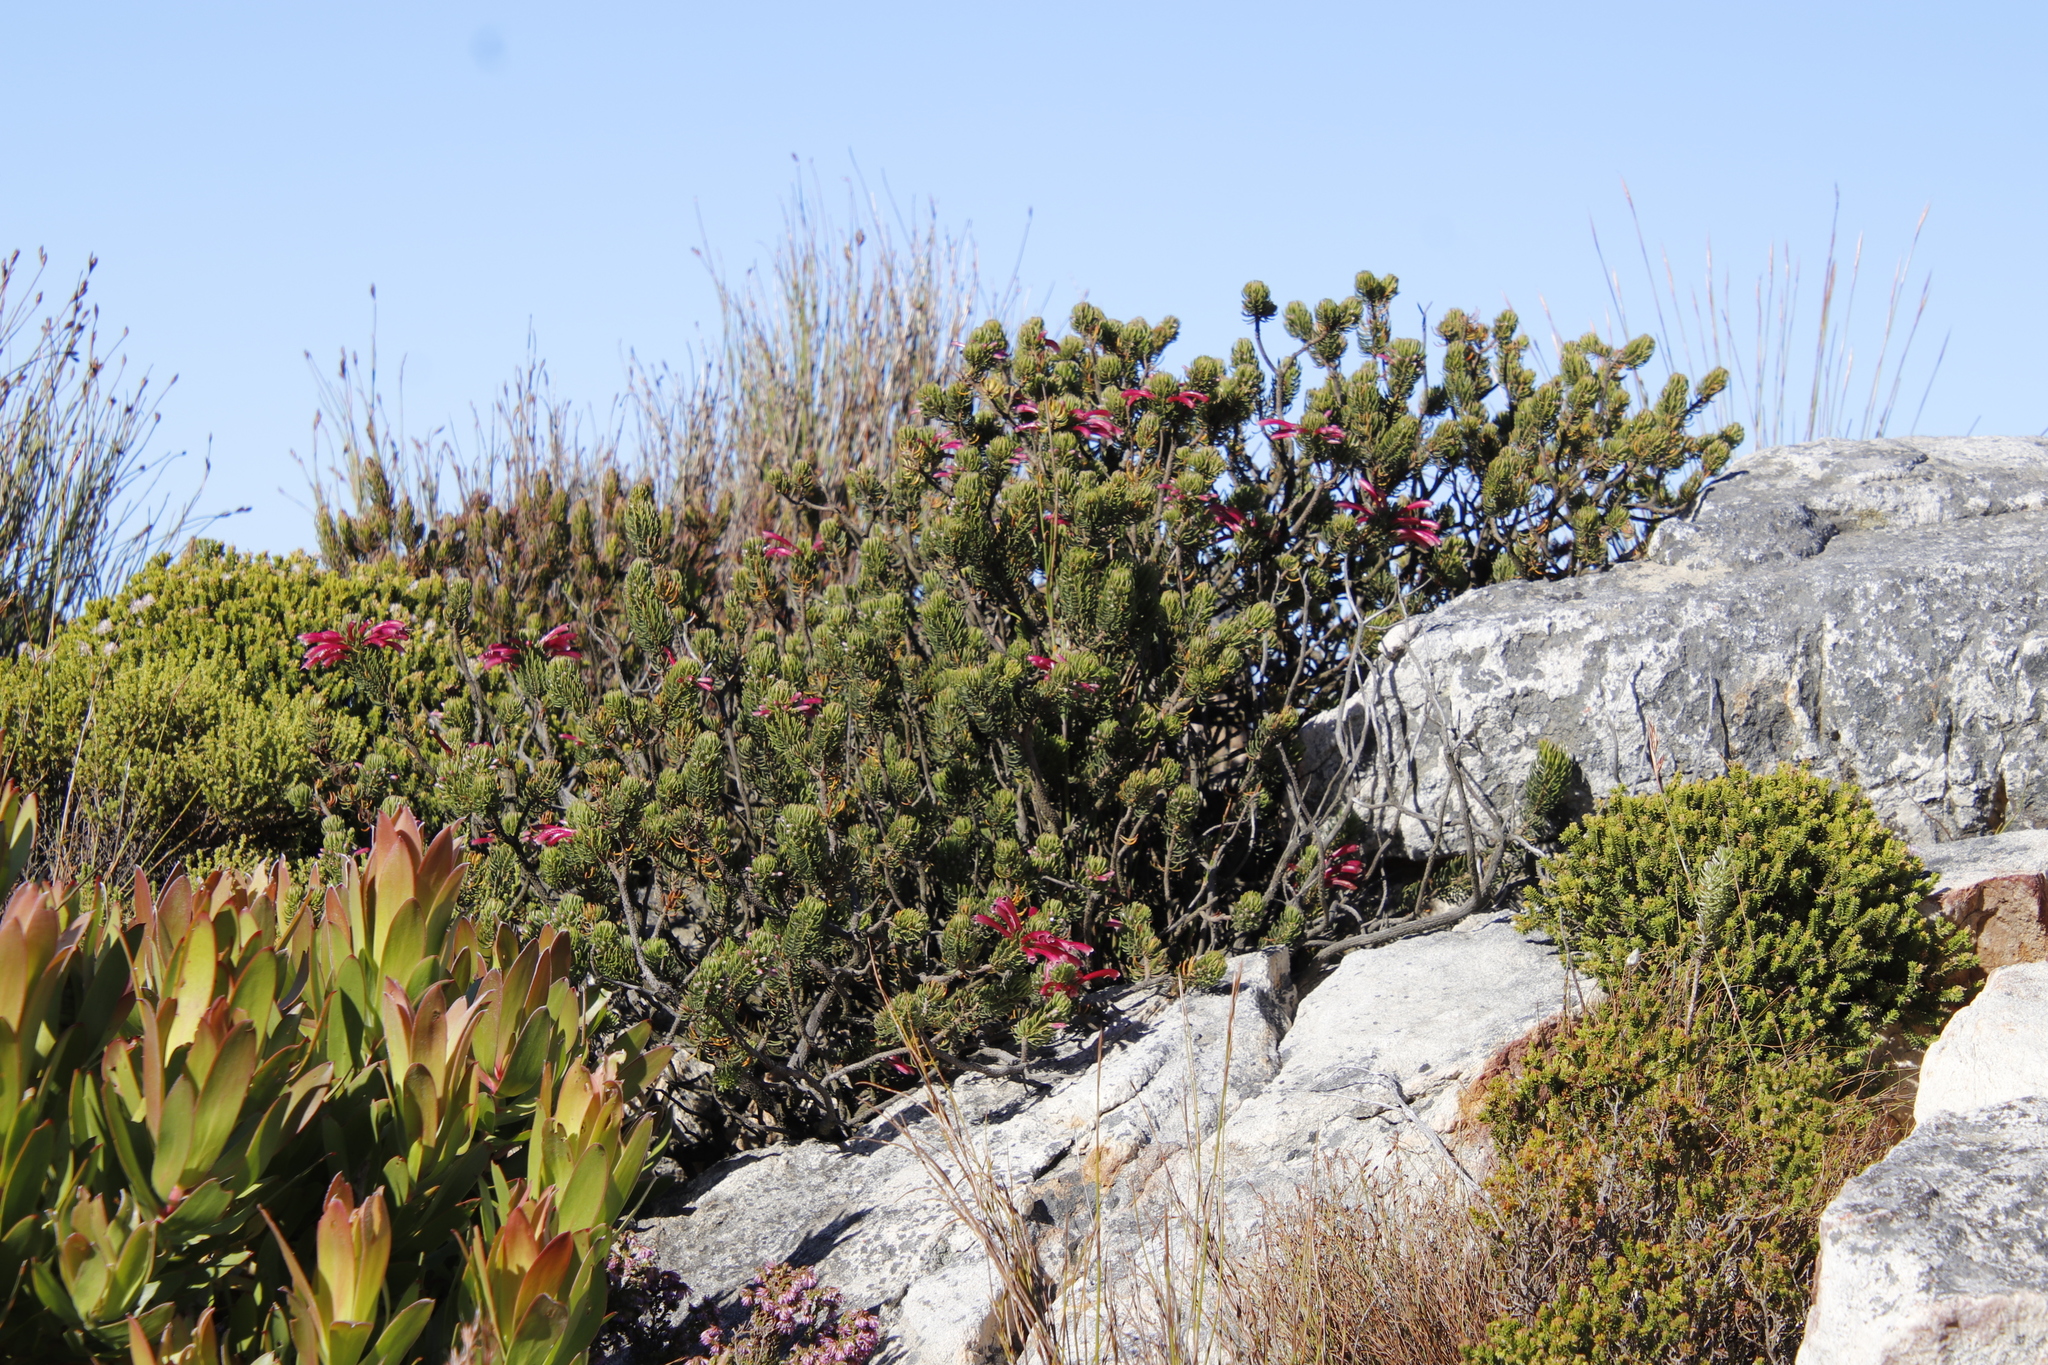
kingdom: Plantae
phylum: Tracheophyta
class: Magnoliopsida
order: Ericales
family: Ericaceae
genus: Erica
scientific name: Erica thomae
